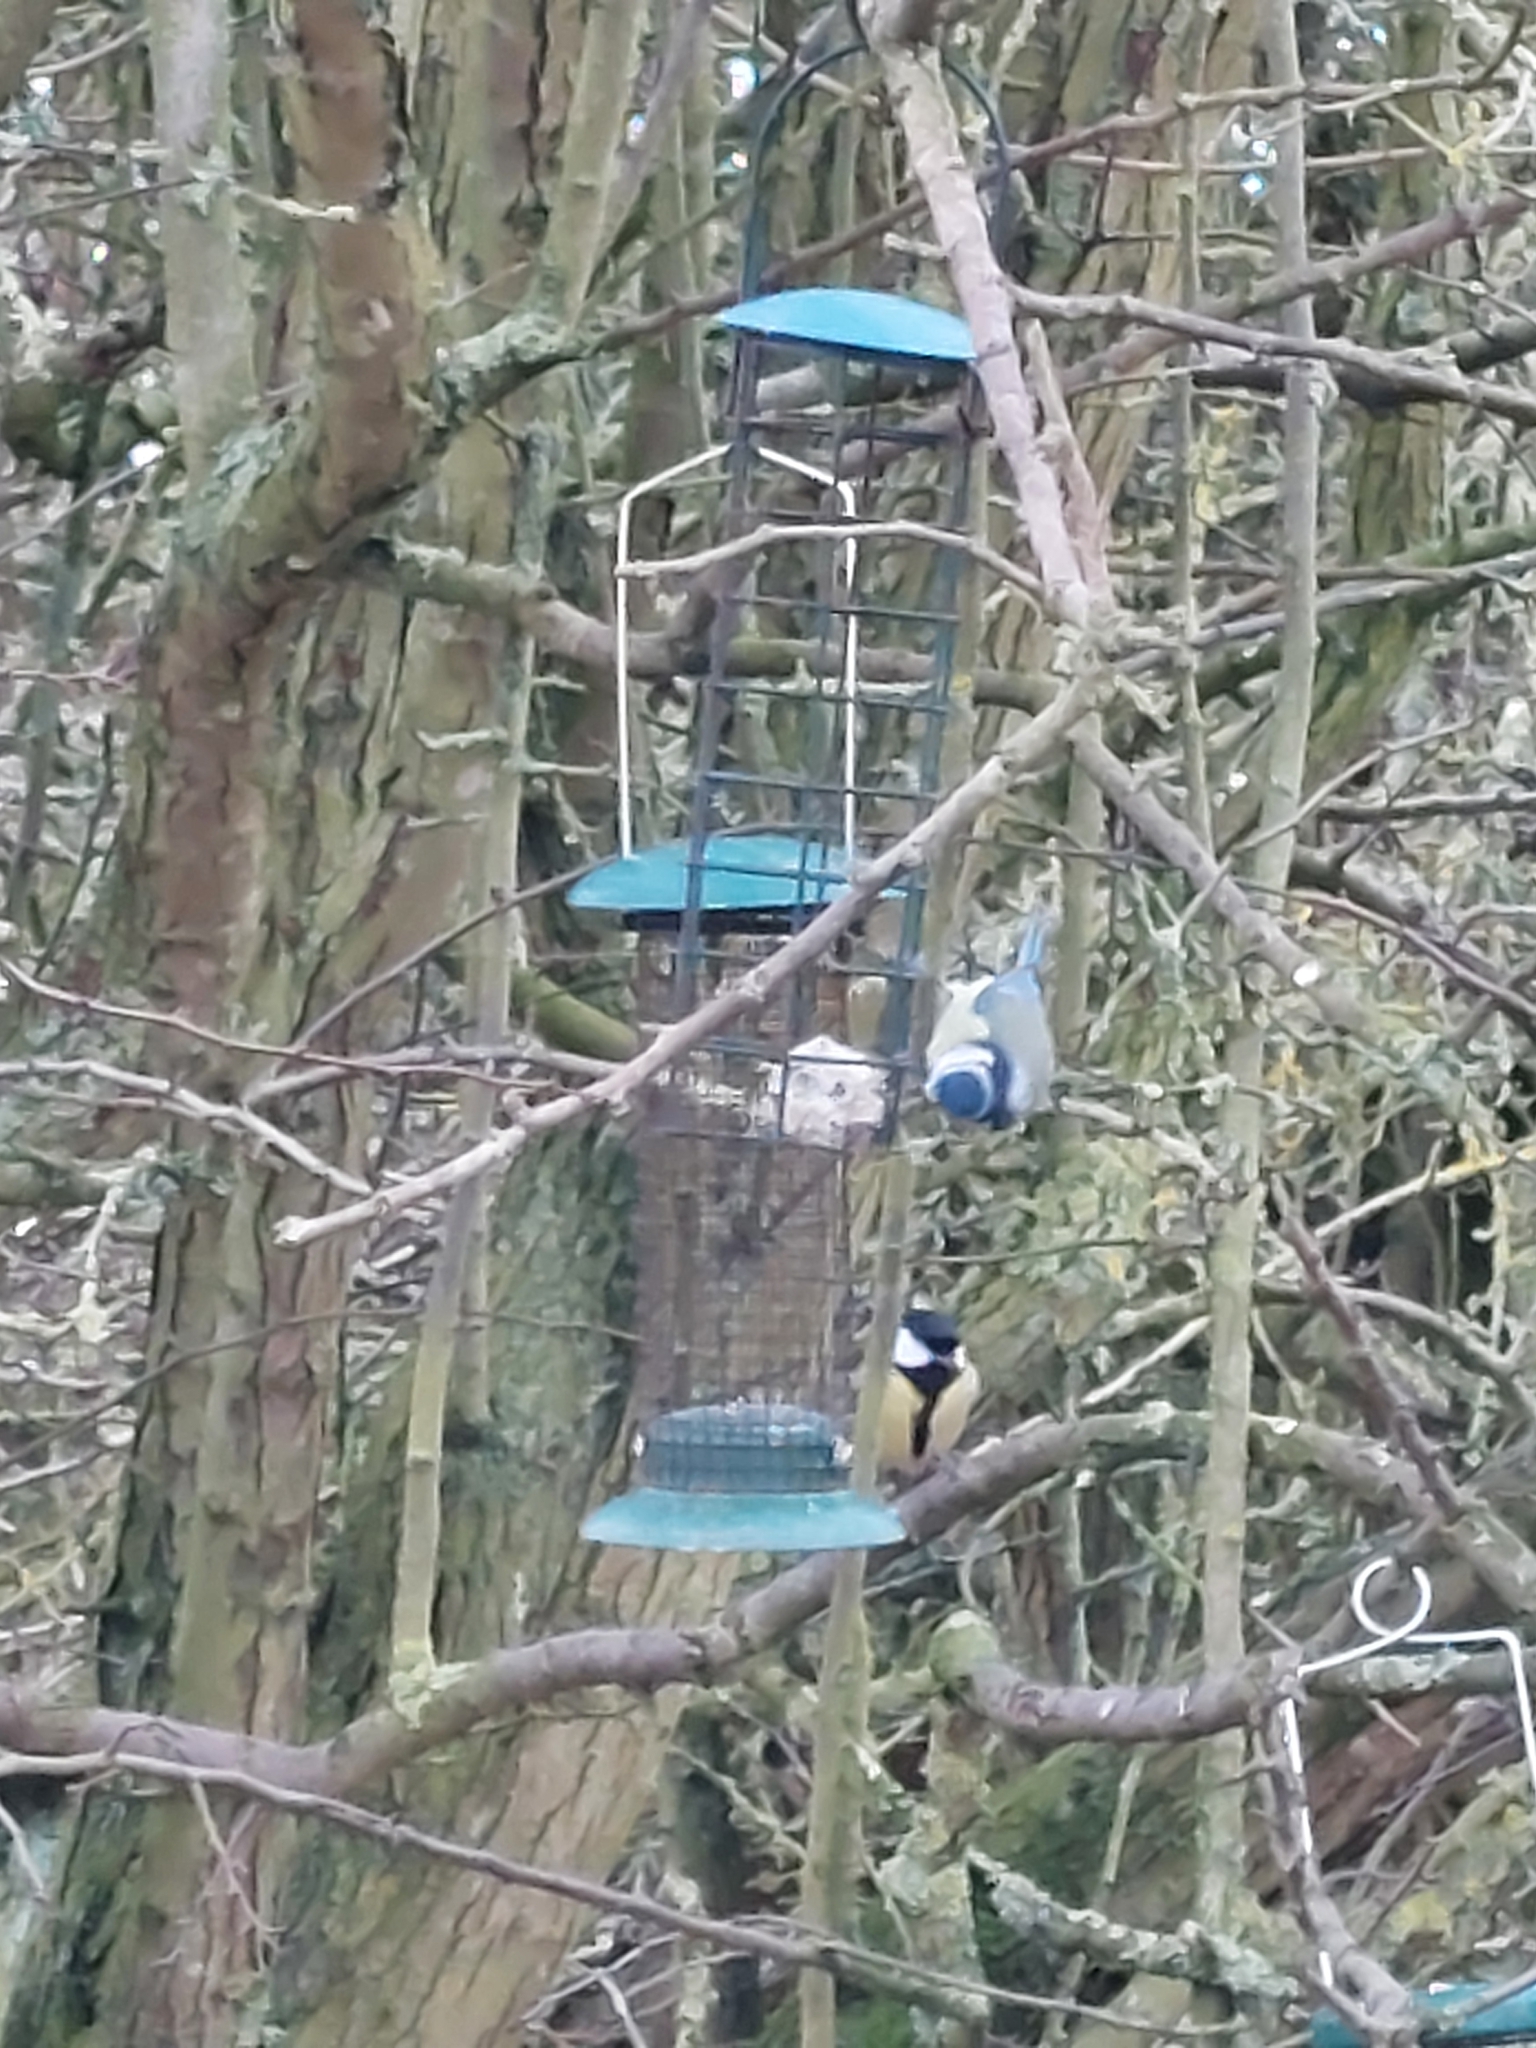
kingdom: Animalia
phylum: Chordata
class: Aves
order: Passeriformes
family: Paridae
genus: Parus
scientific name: Parus major
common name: Great tit
